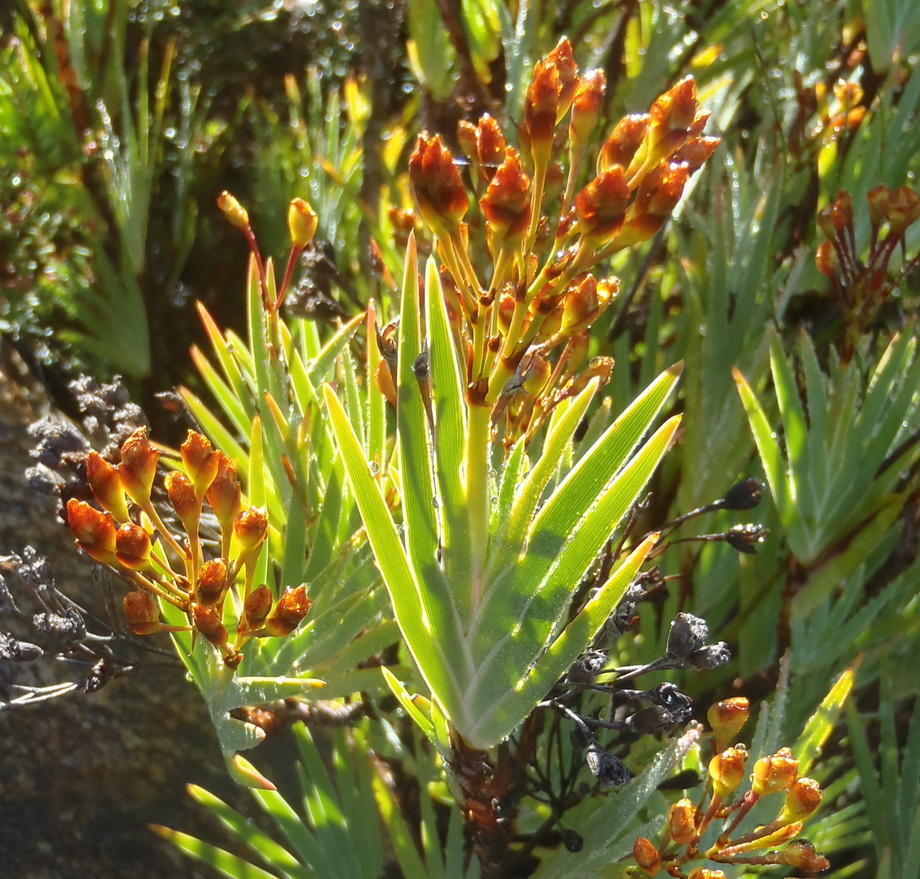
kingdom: Plantae
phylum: Tracheophyta
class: Liliopsida
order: Asparagales
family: Iridaceae
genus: Nivenia
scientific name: Nivenia binata
